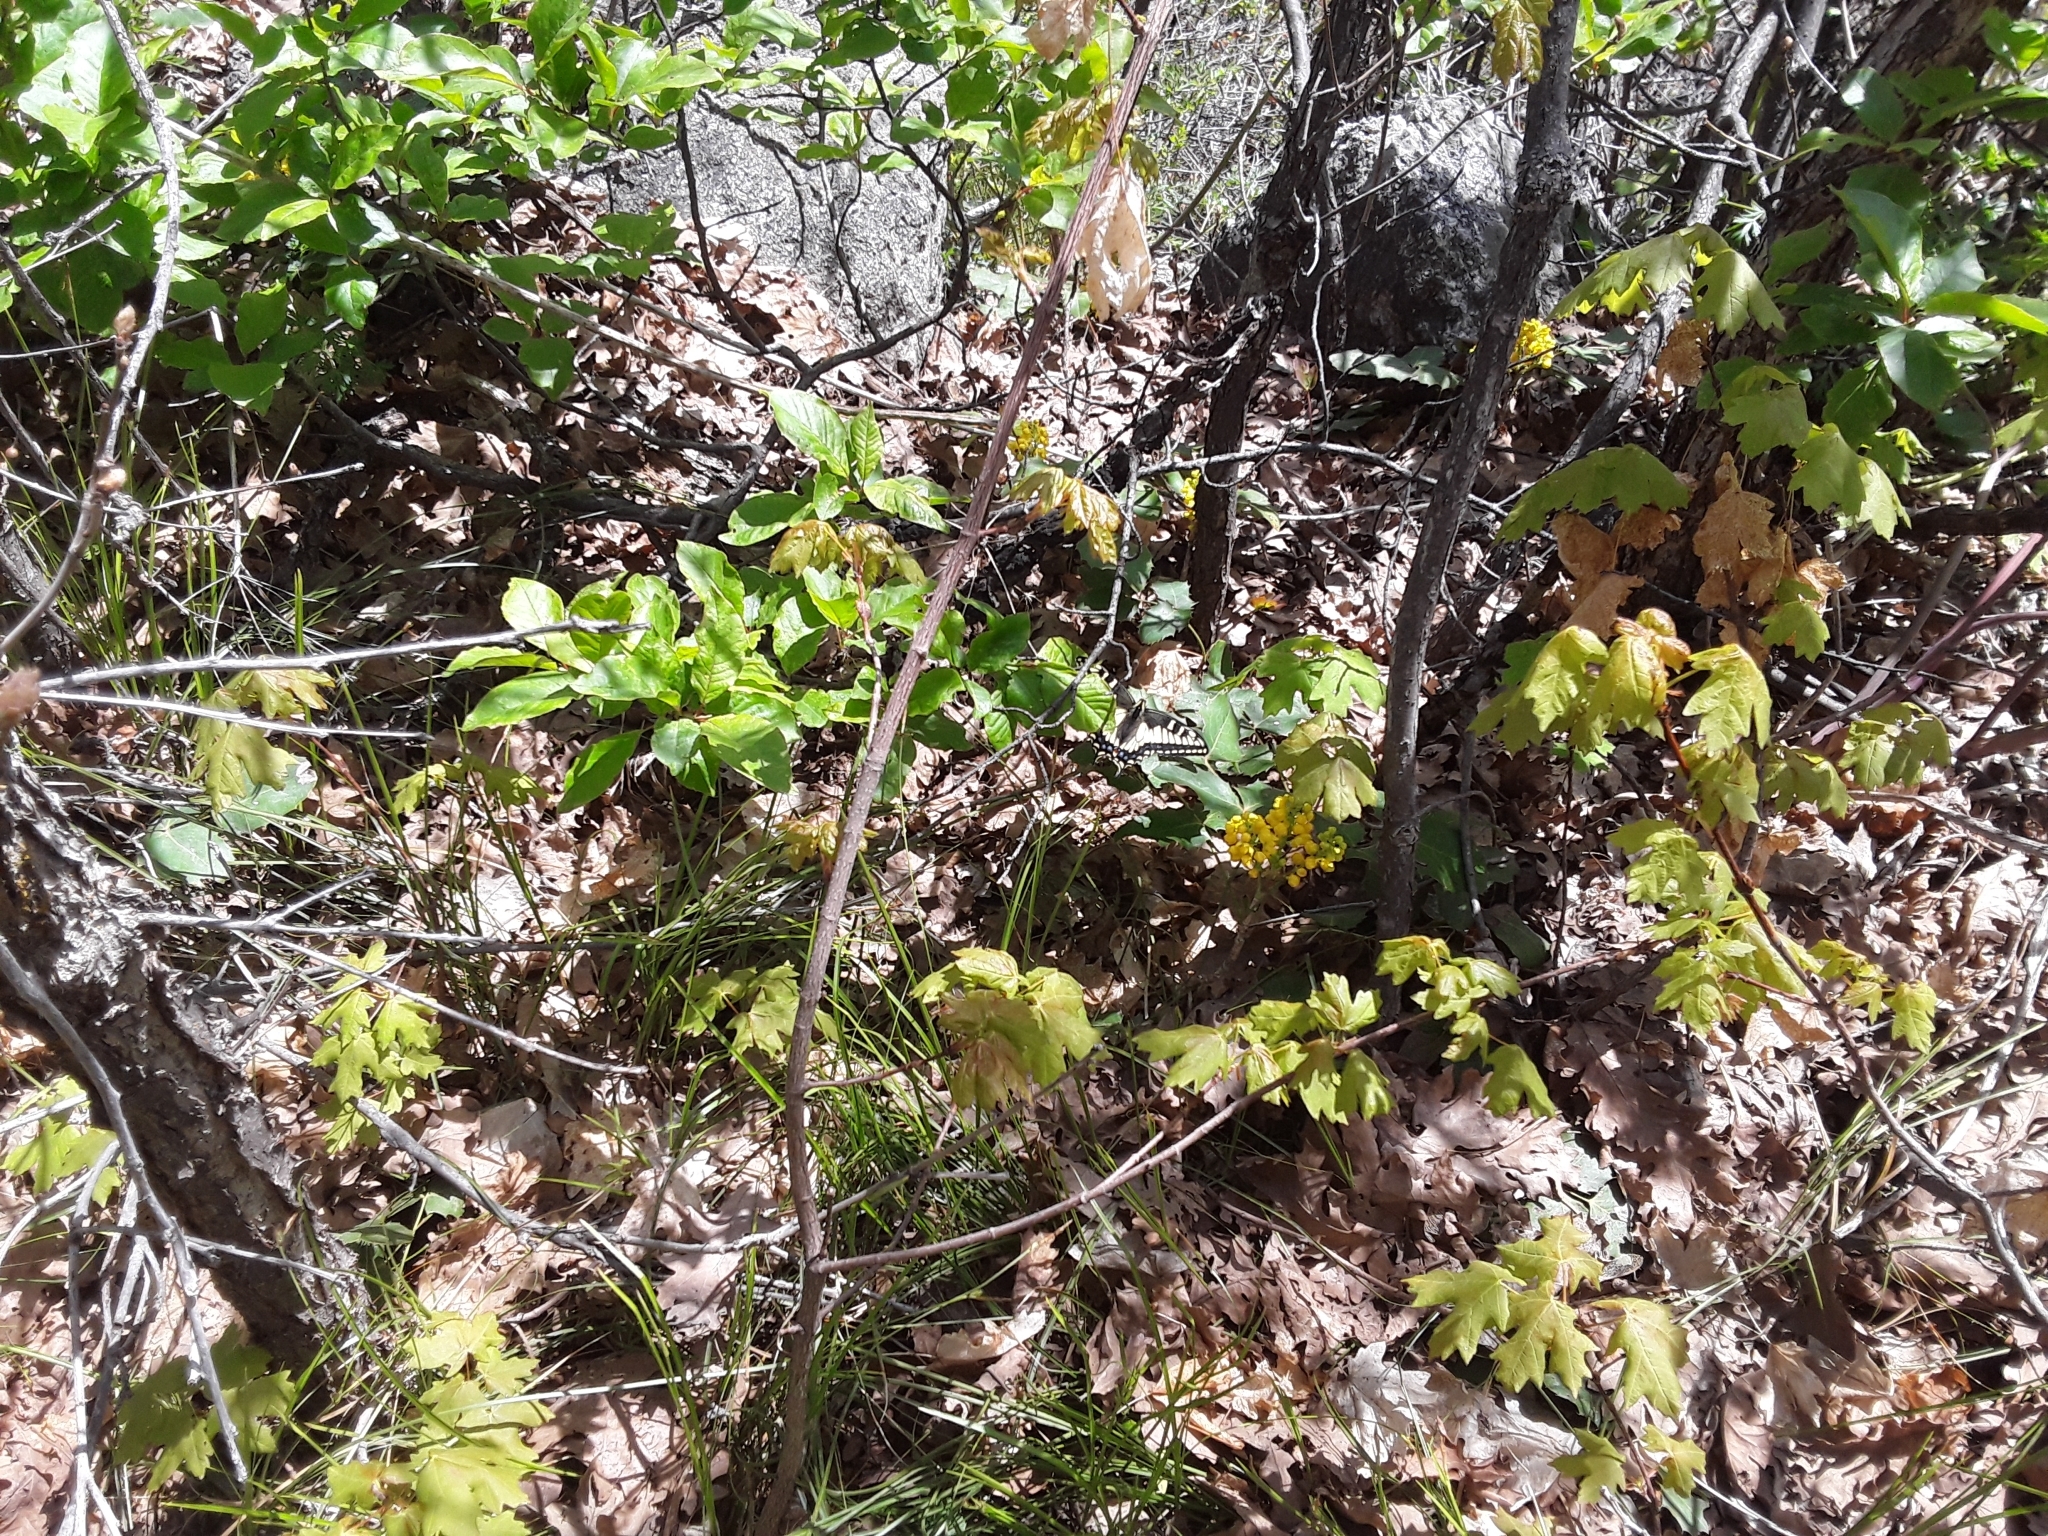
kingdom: Animalia
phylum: Arthropoda
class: Insecta
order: Lepidoptera
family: Papilionidae
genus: Papilio
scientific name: Papilio zelicaon
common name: Anise swallowtail
